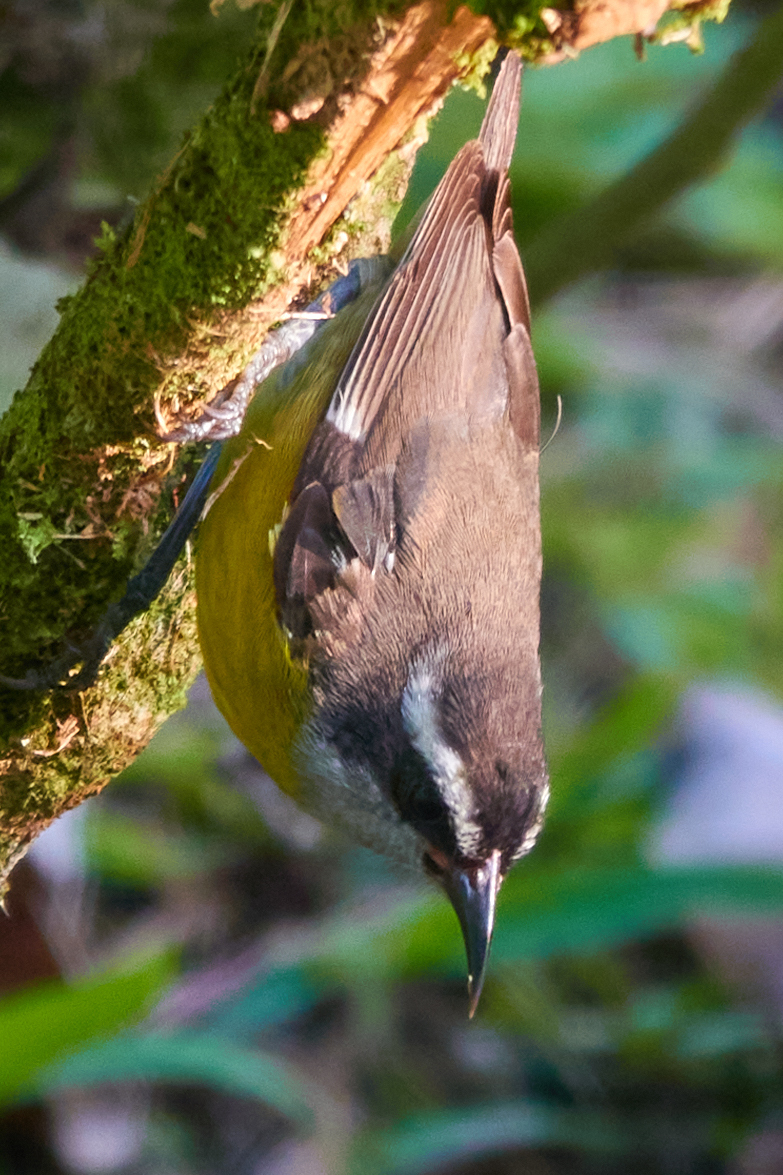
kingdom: Animalia
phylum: Chordata
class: Aves
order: Passeriformes
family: Thraupidae
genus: Coereba
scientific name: Coereba flaveola
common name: Bananaquit
